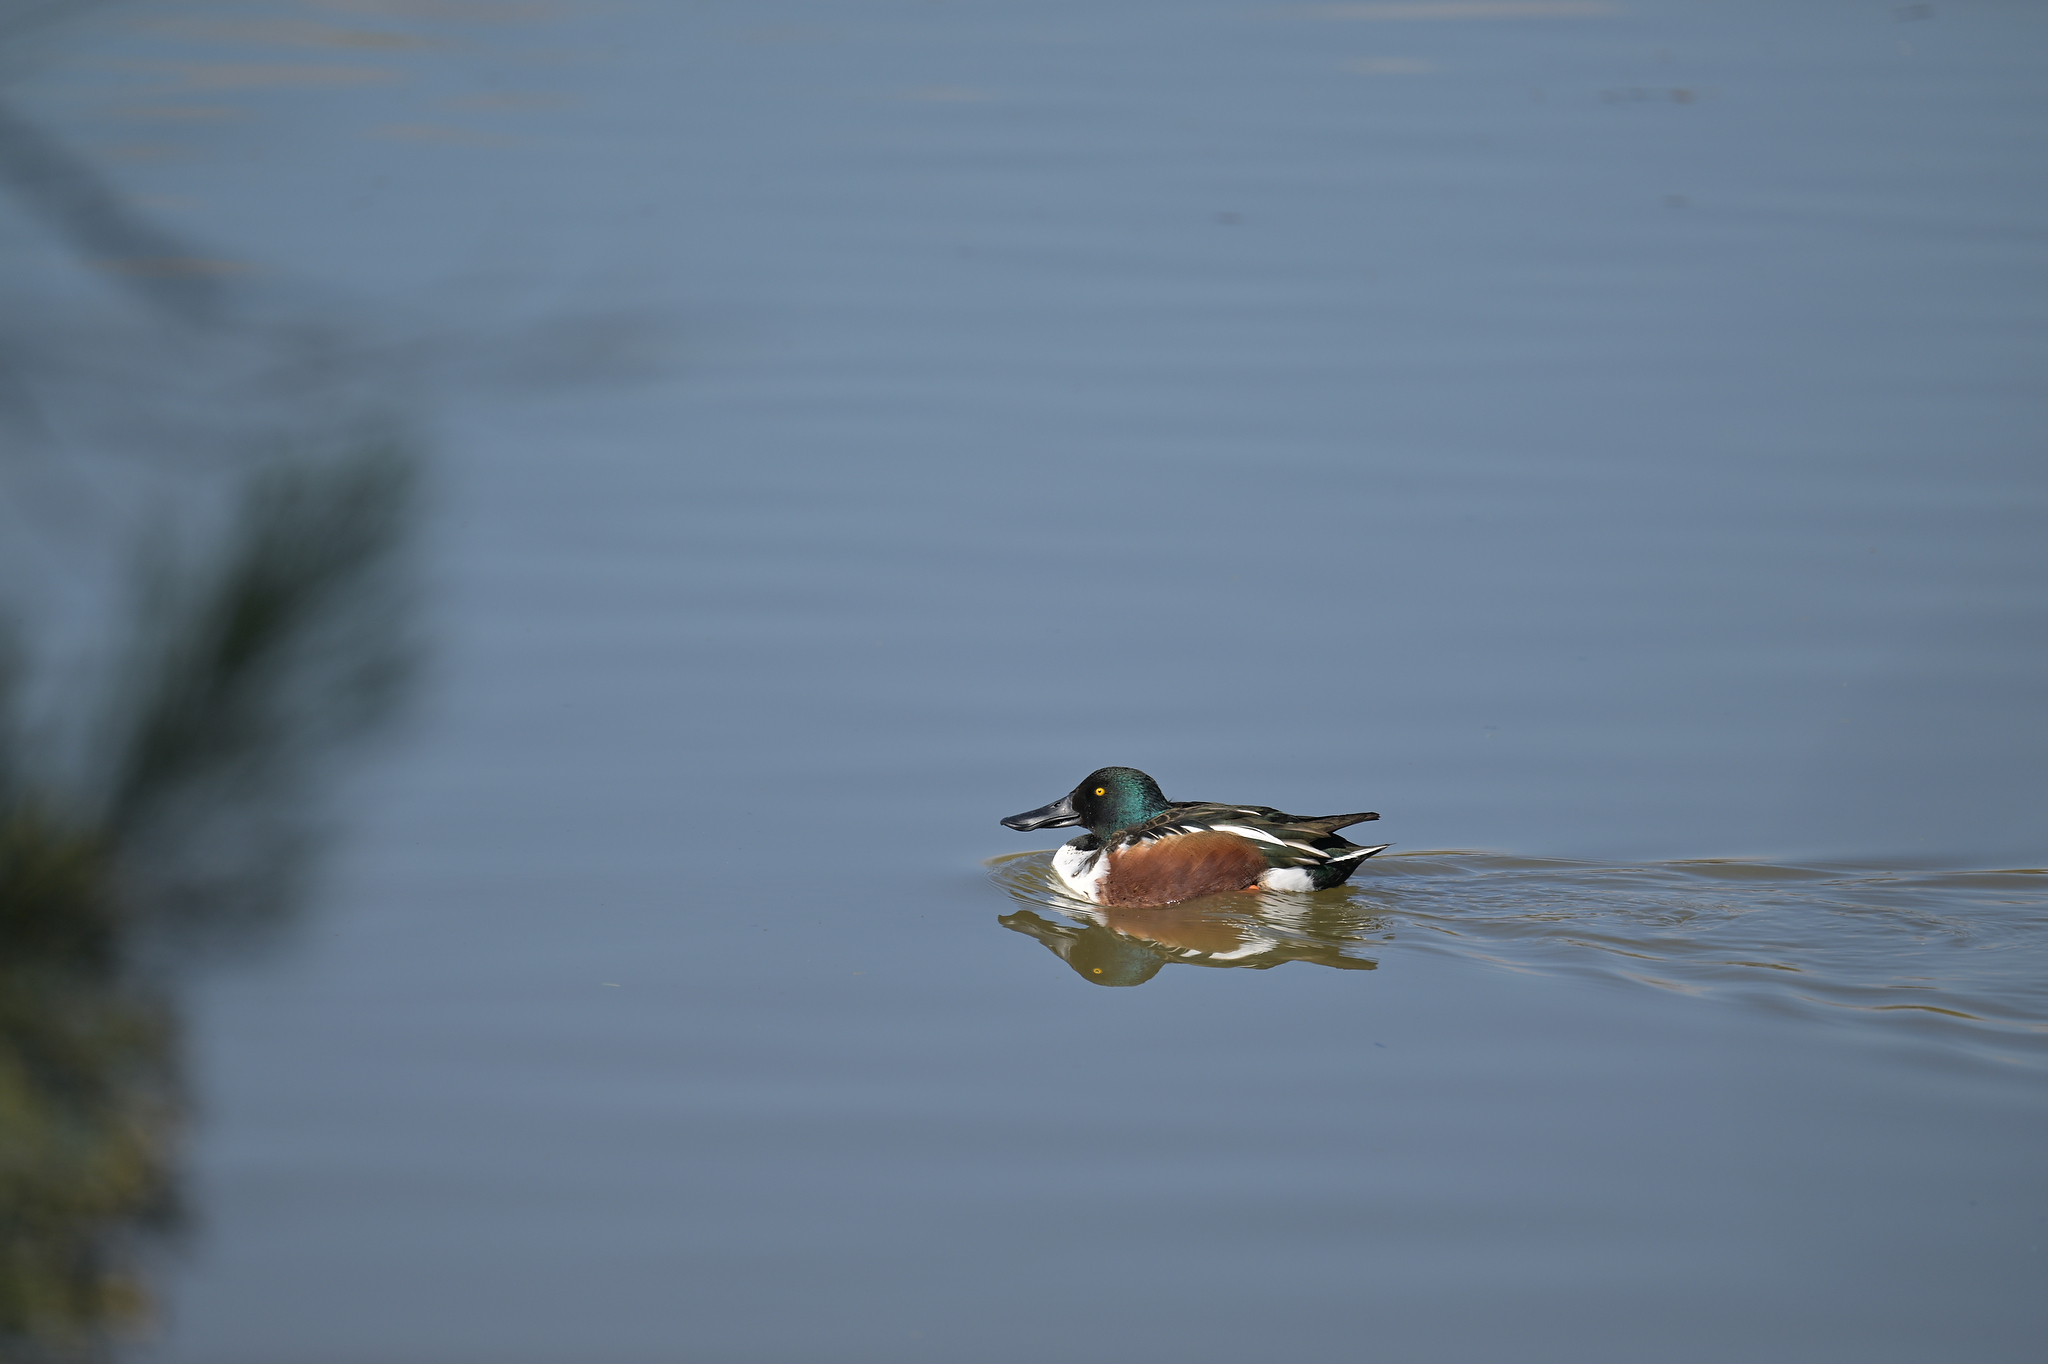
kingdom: Animalia
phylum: Chordata
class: Aves
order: Anseriformes
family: Anatidae
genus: Spatula
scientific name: Spatula clypeata
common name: Northern shoveler
